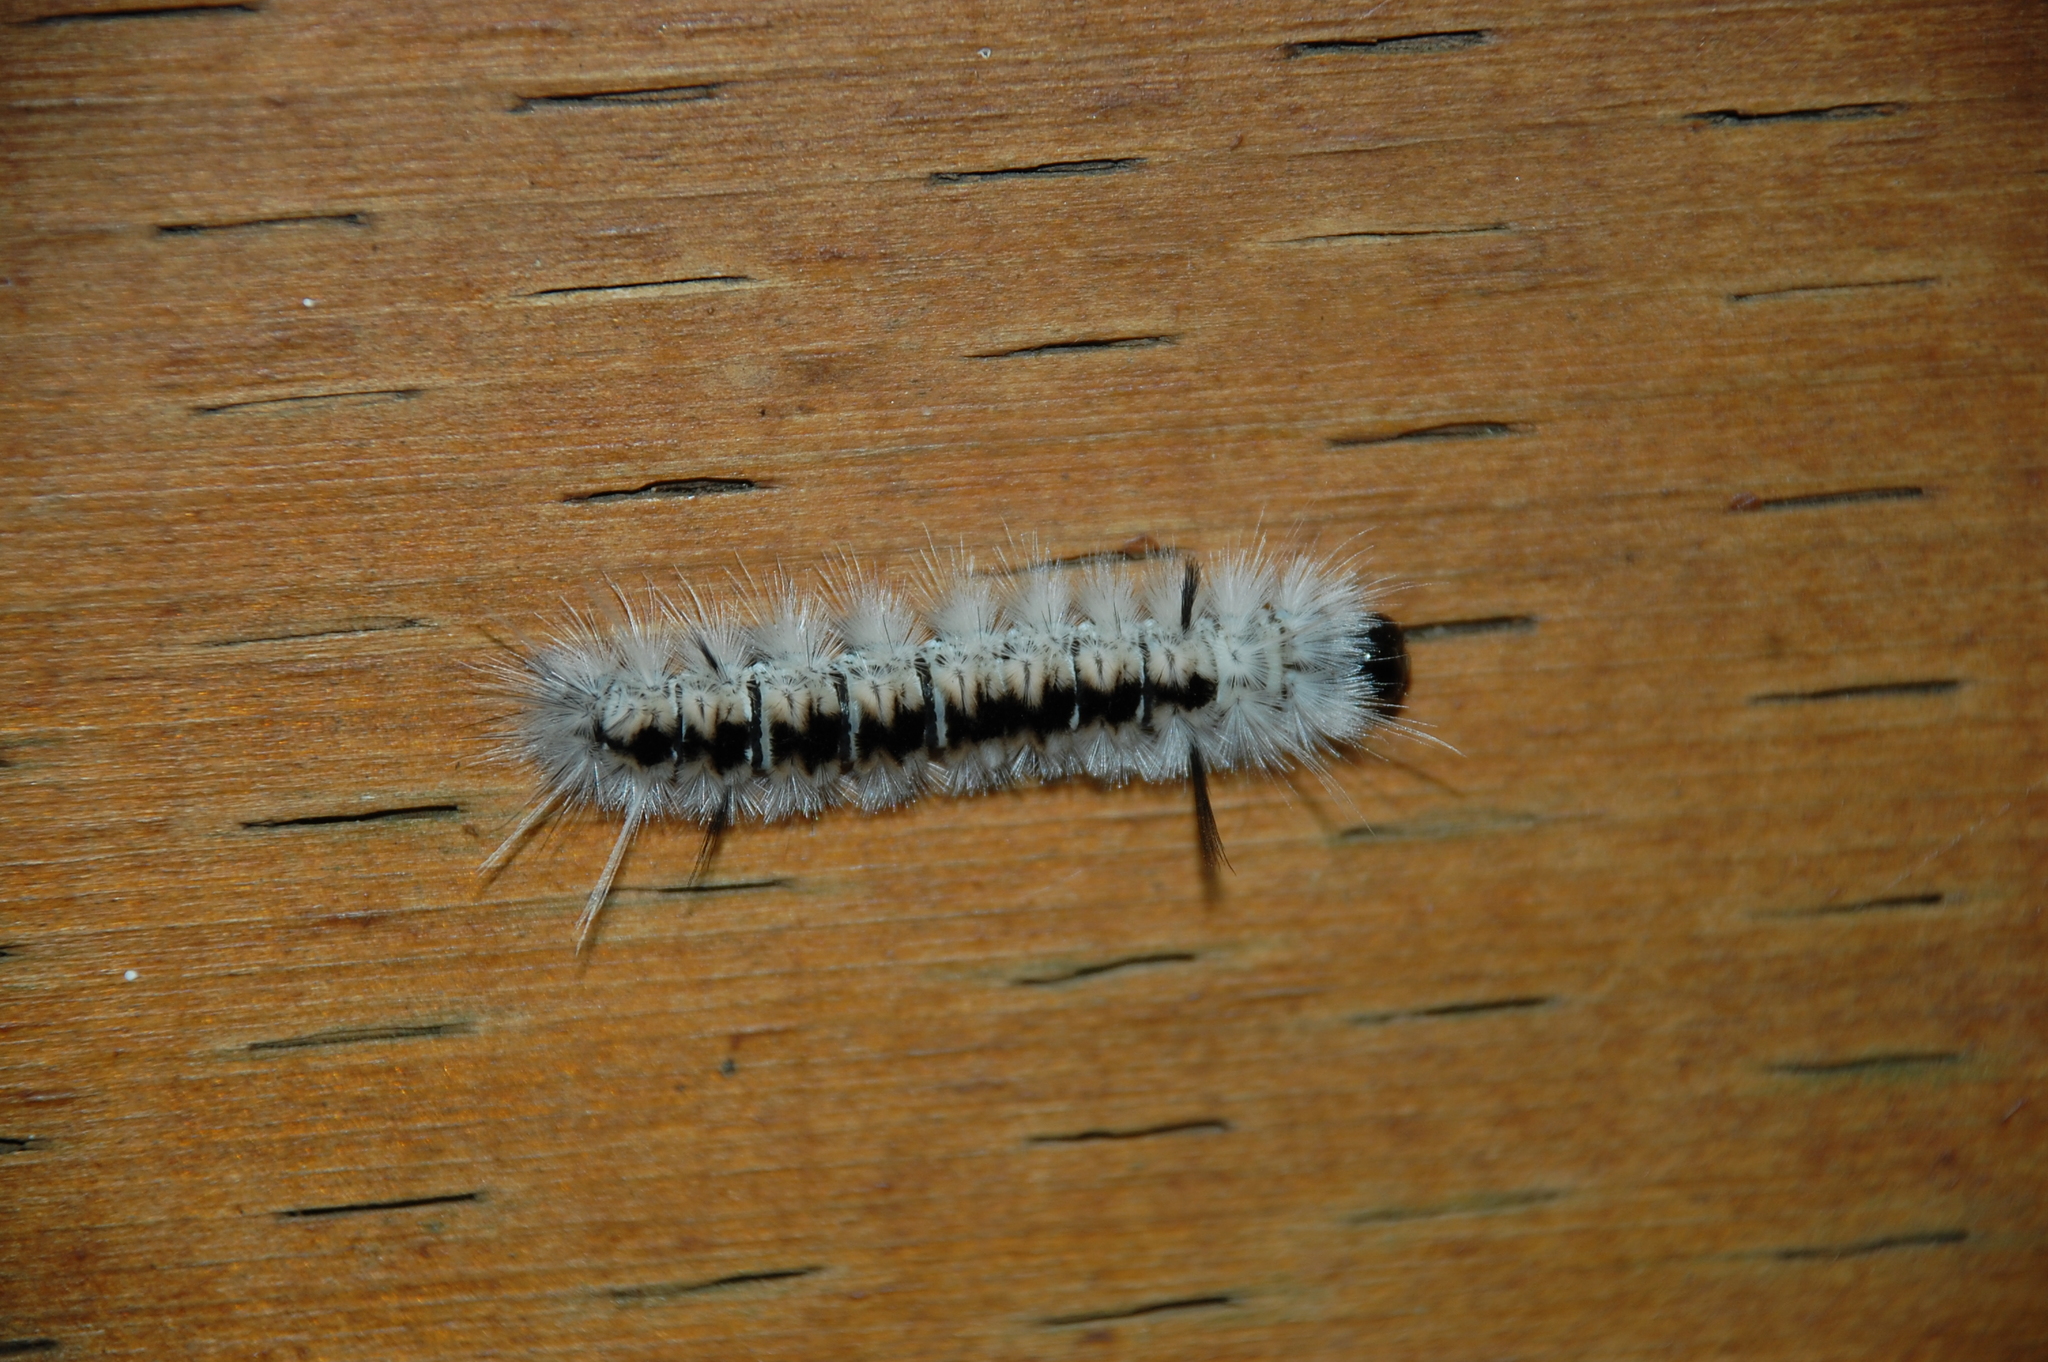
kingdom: Animalia
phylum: Arthropoda
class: Insecta
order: Lepidoptera
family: Erebidae
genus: Lophocampa
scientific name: Lophocampa caryae
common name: Hickory tussock moth
